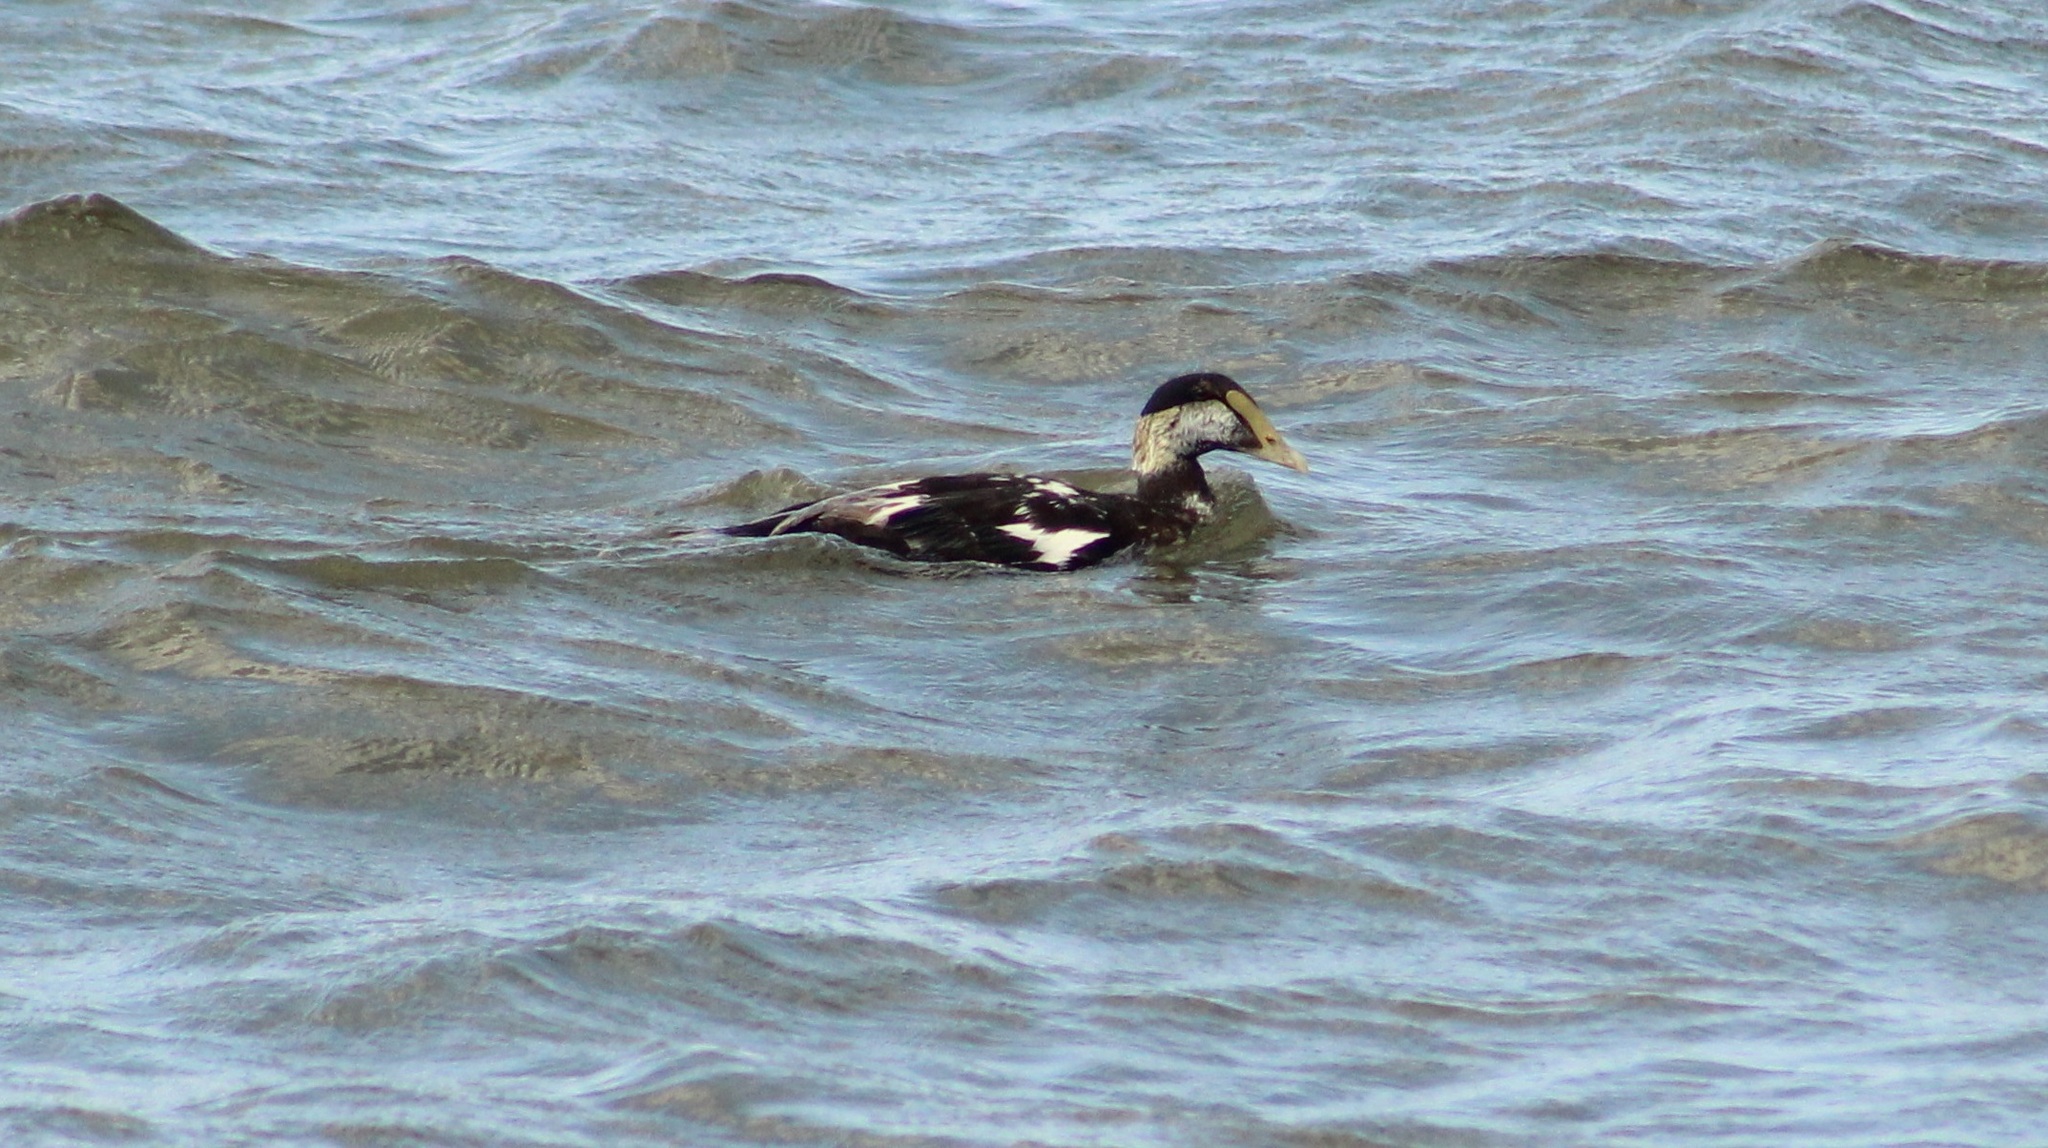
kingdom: Animalia
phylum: Chordata
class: Aves
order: Anseriformes
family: Anatidae
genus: Somateria
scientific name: Somateria mollissima
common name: Common eider
